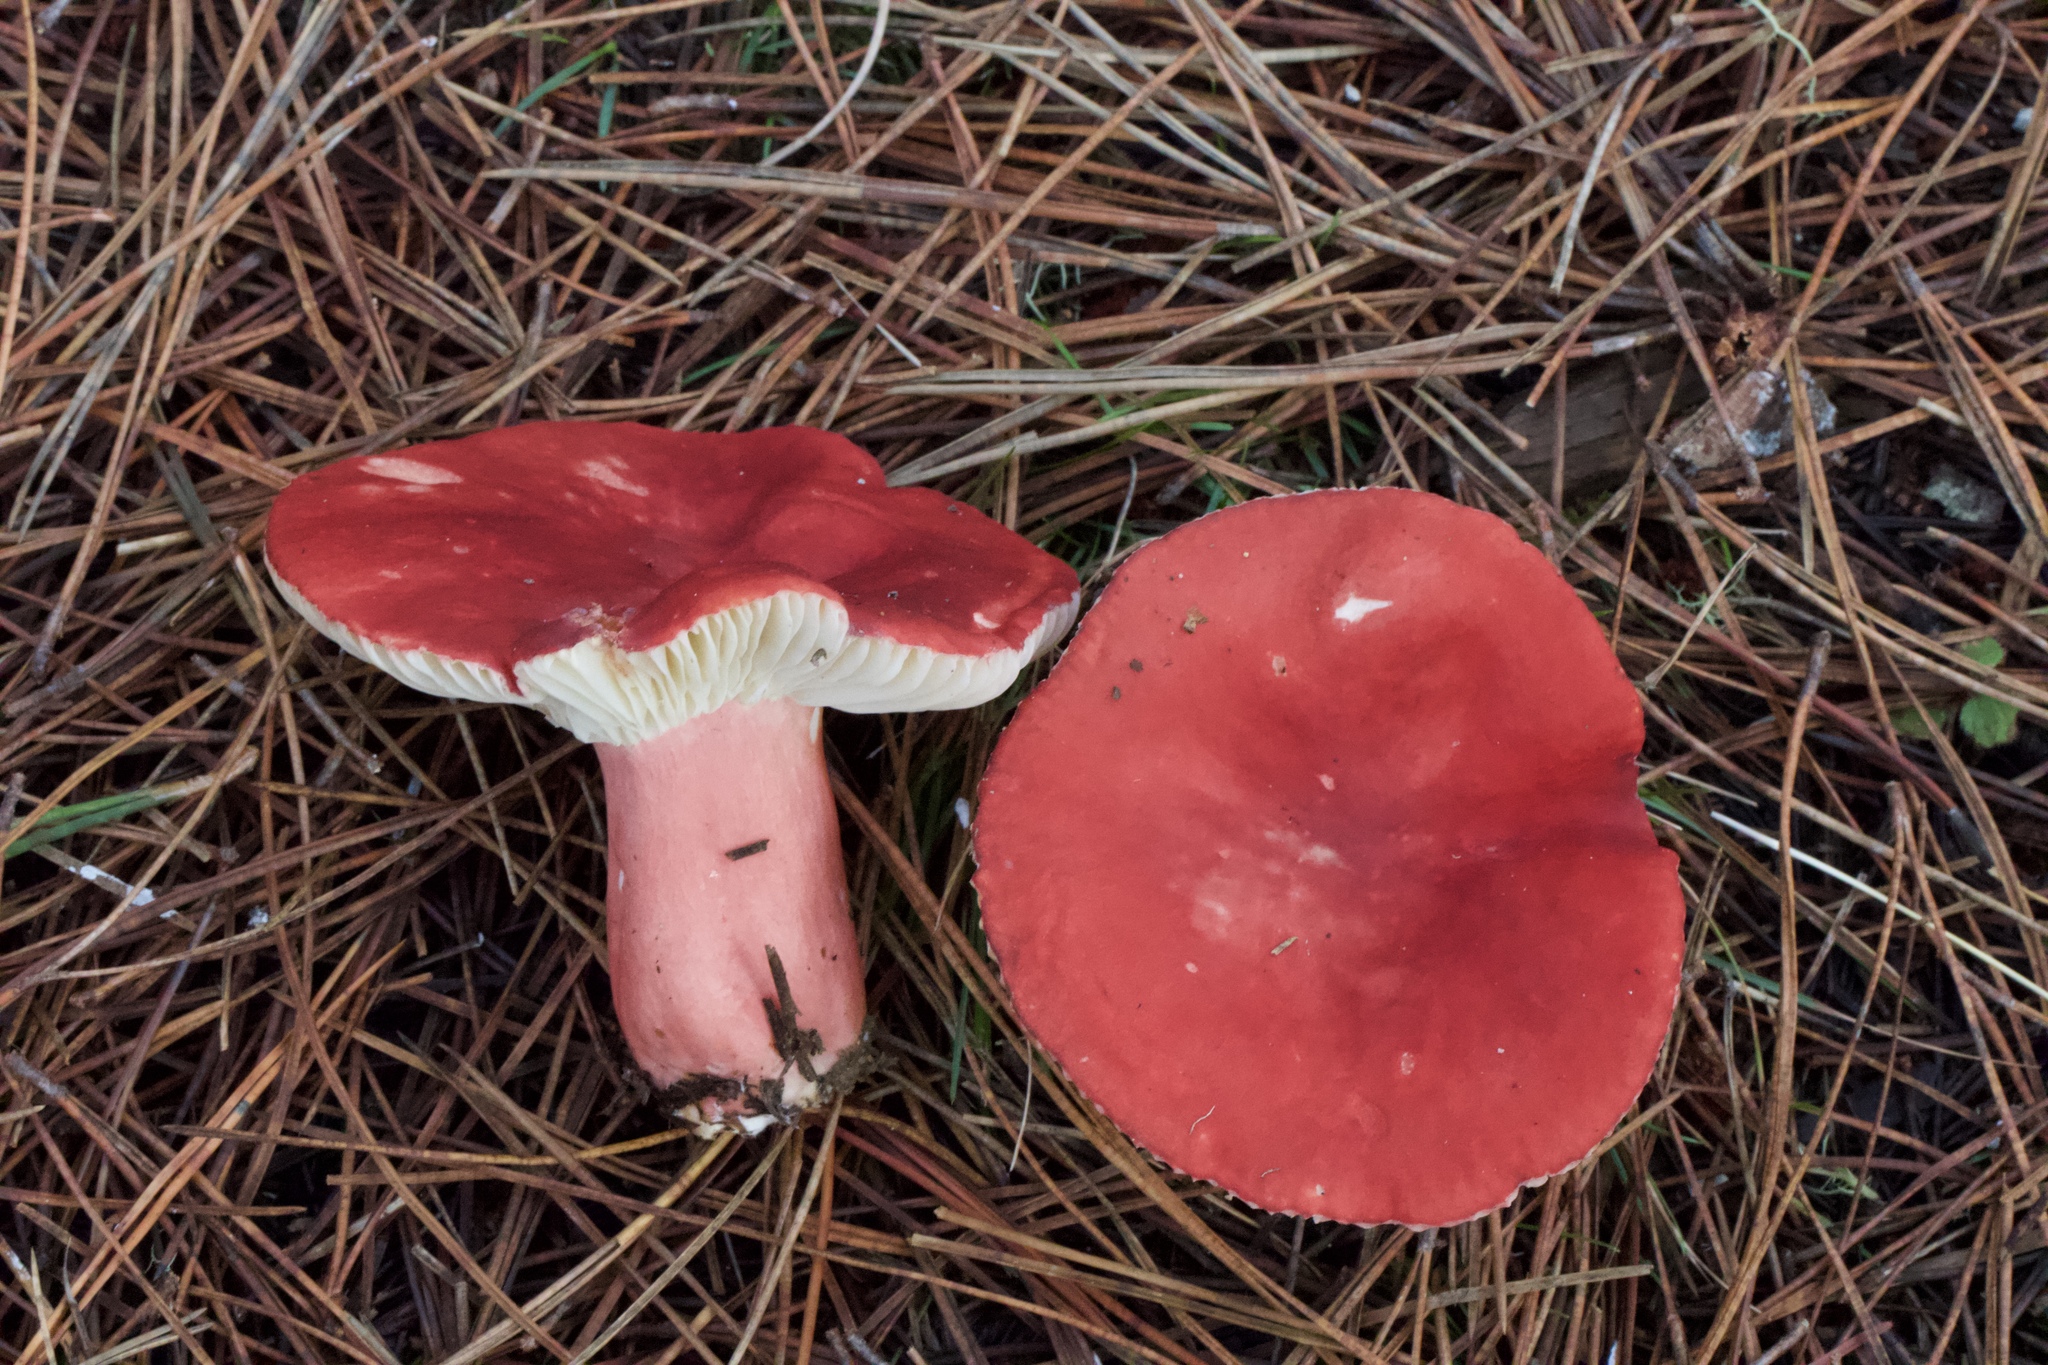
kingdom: Fungi
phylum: Basidiomycota
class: Agaricomycetes
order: Russulales
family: Russulaceae
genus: Russula
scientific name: Russula rhodocephala
